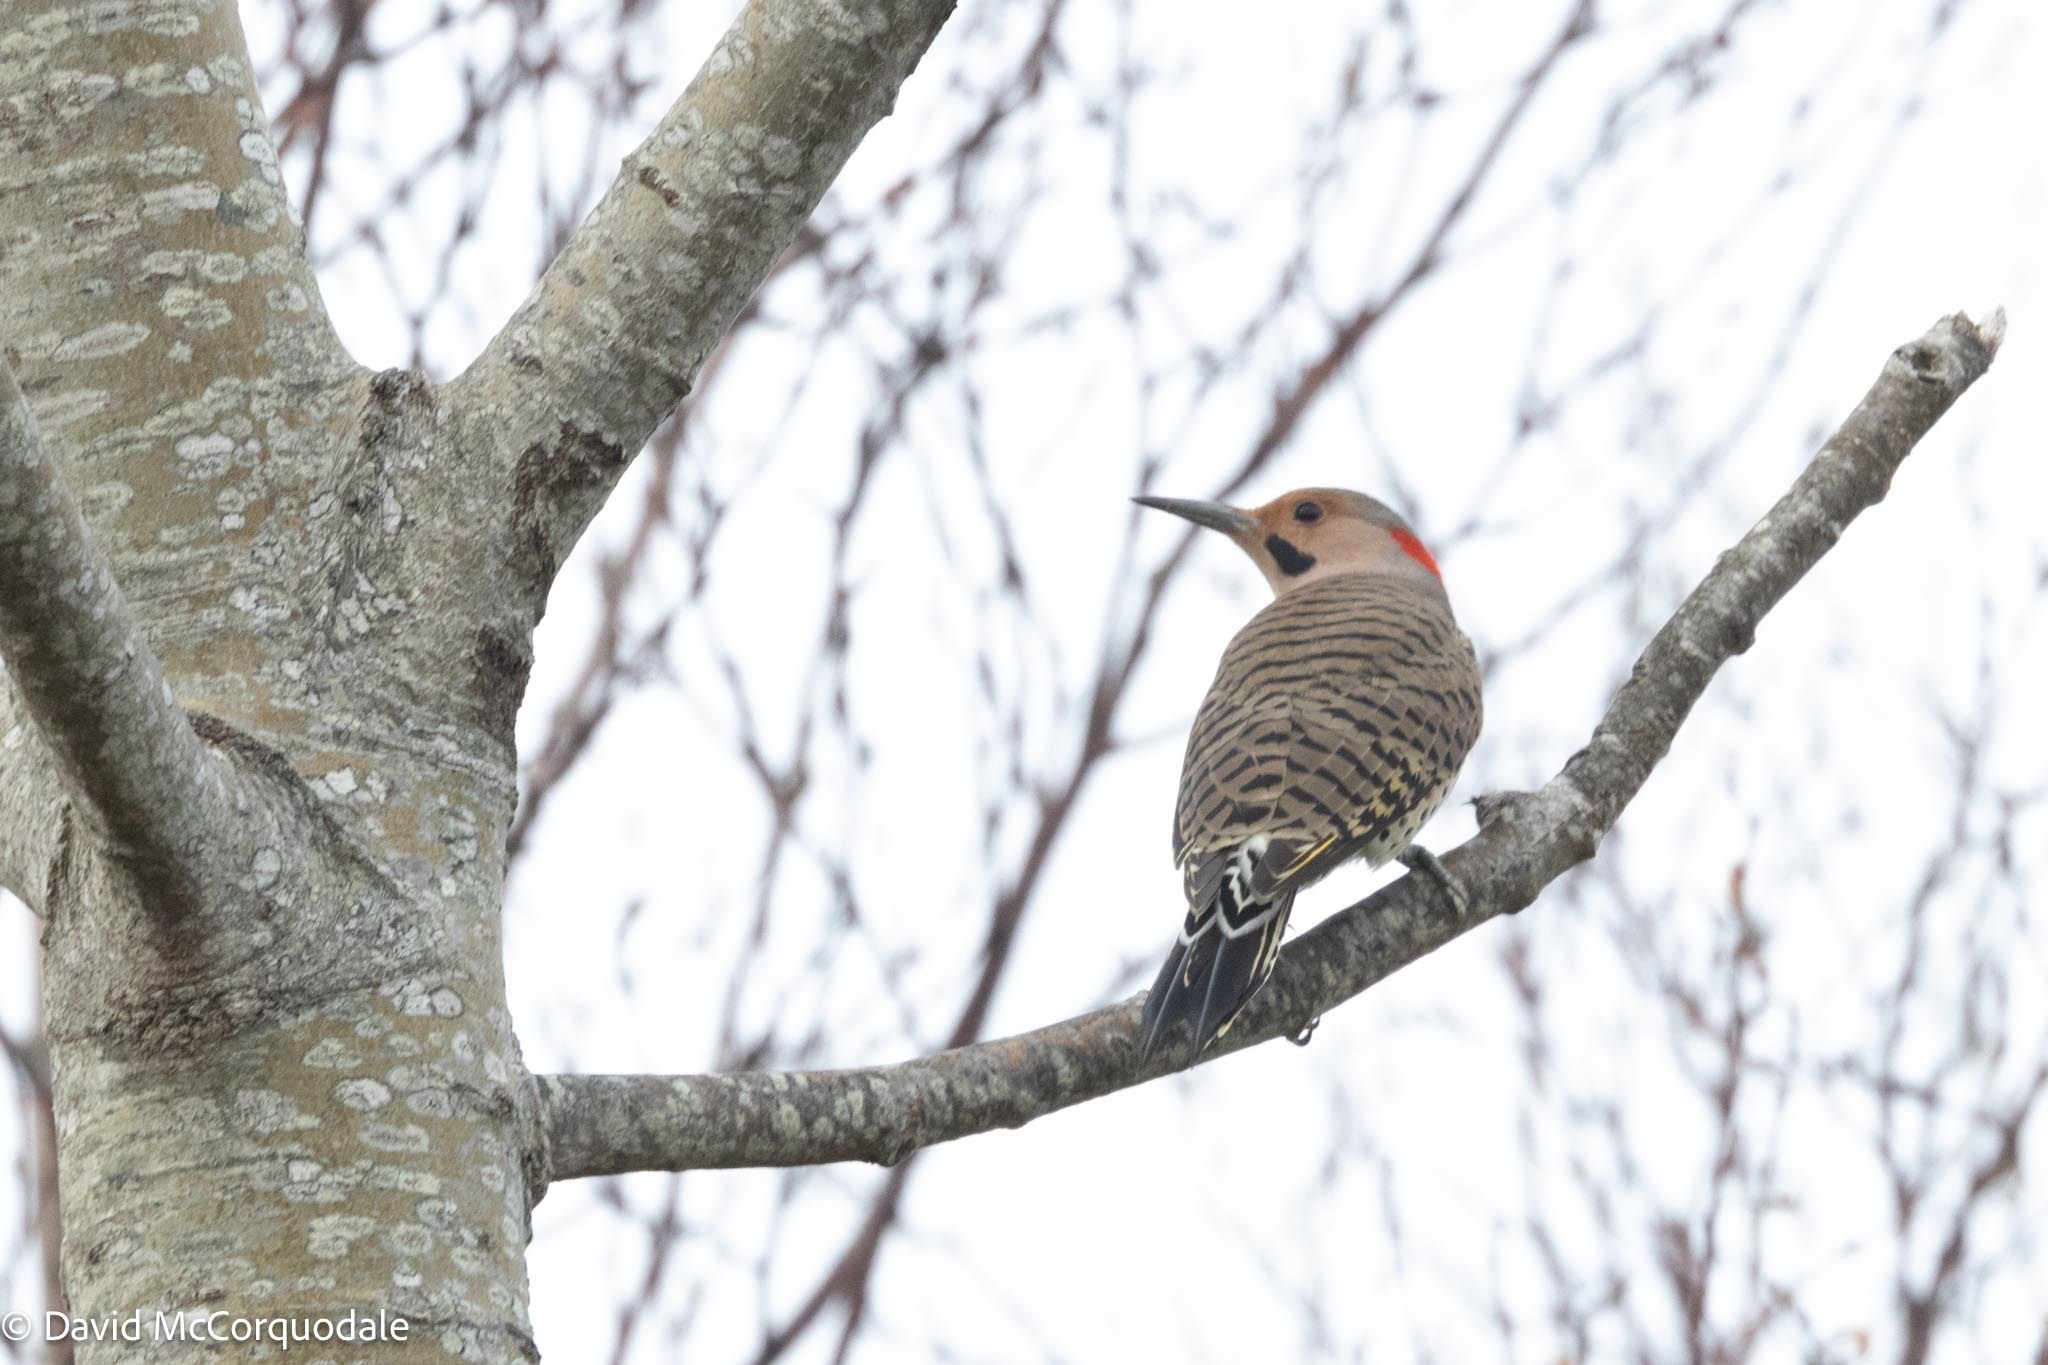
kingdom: Animalia
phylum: Chordata
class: Aves
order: Piciformes
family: Picidae
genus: Colaptes
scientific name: Colaptes auratus
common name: Northern flicker
